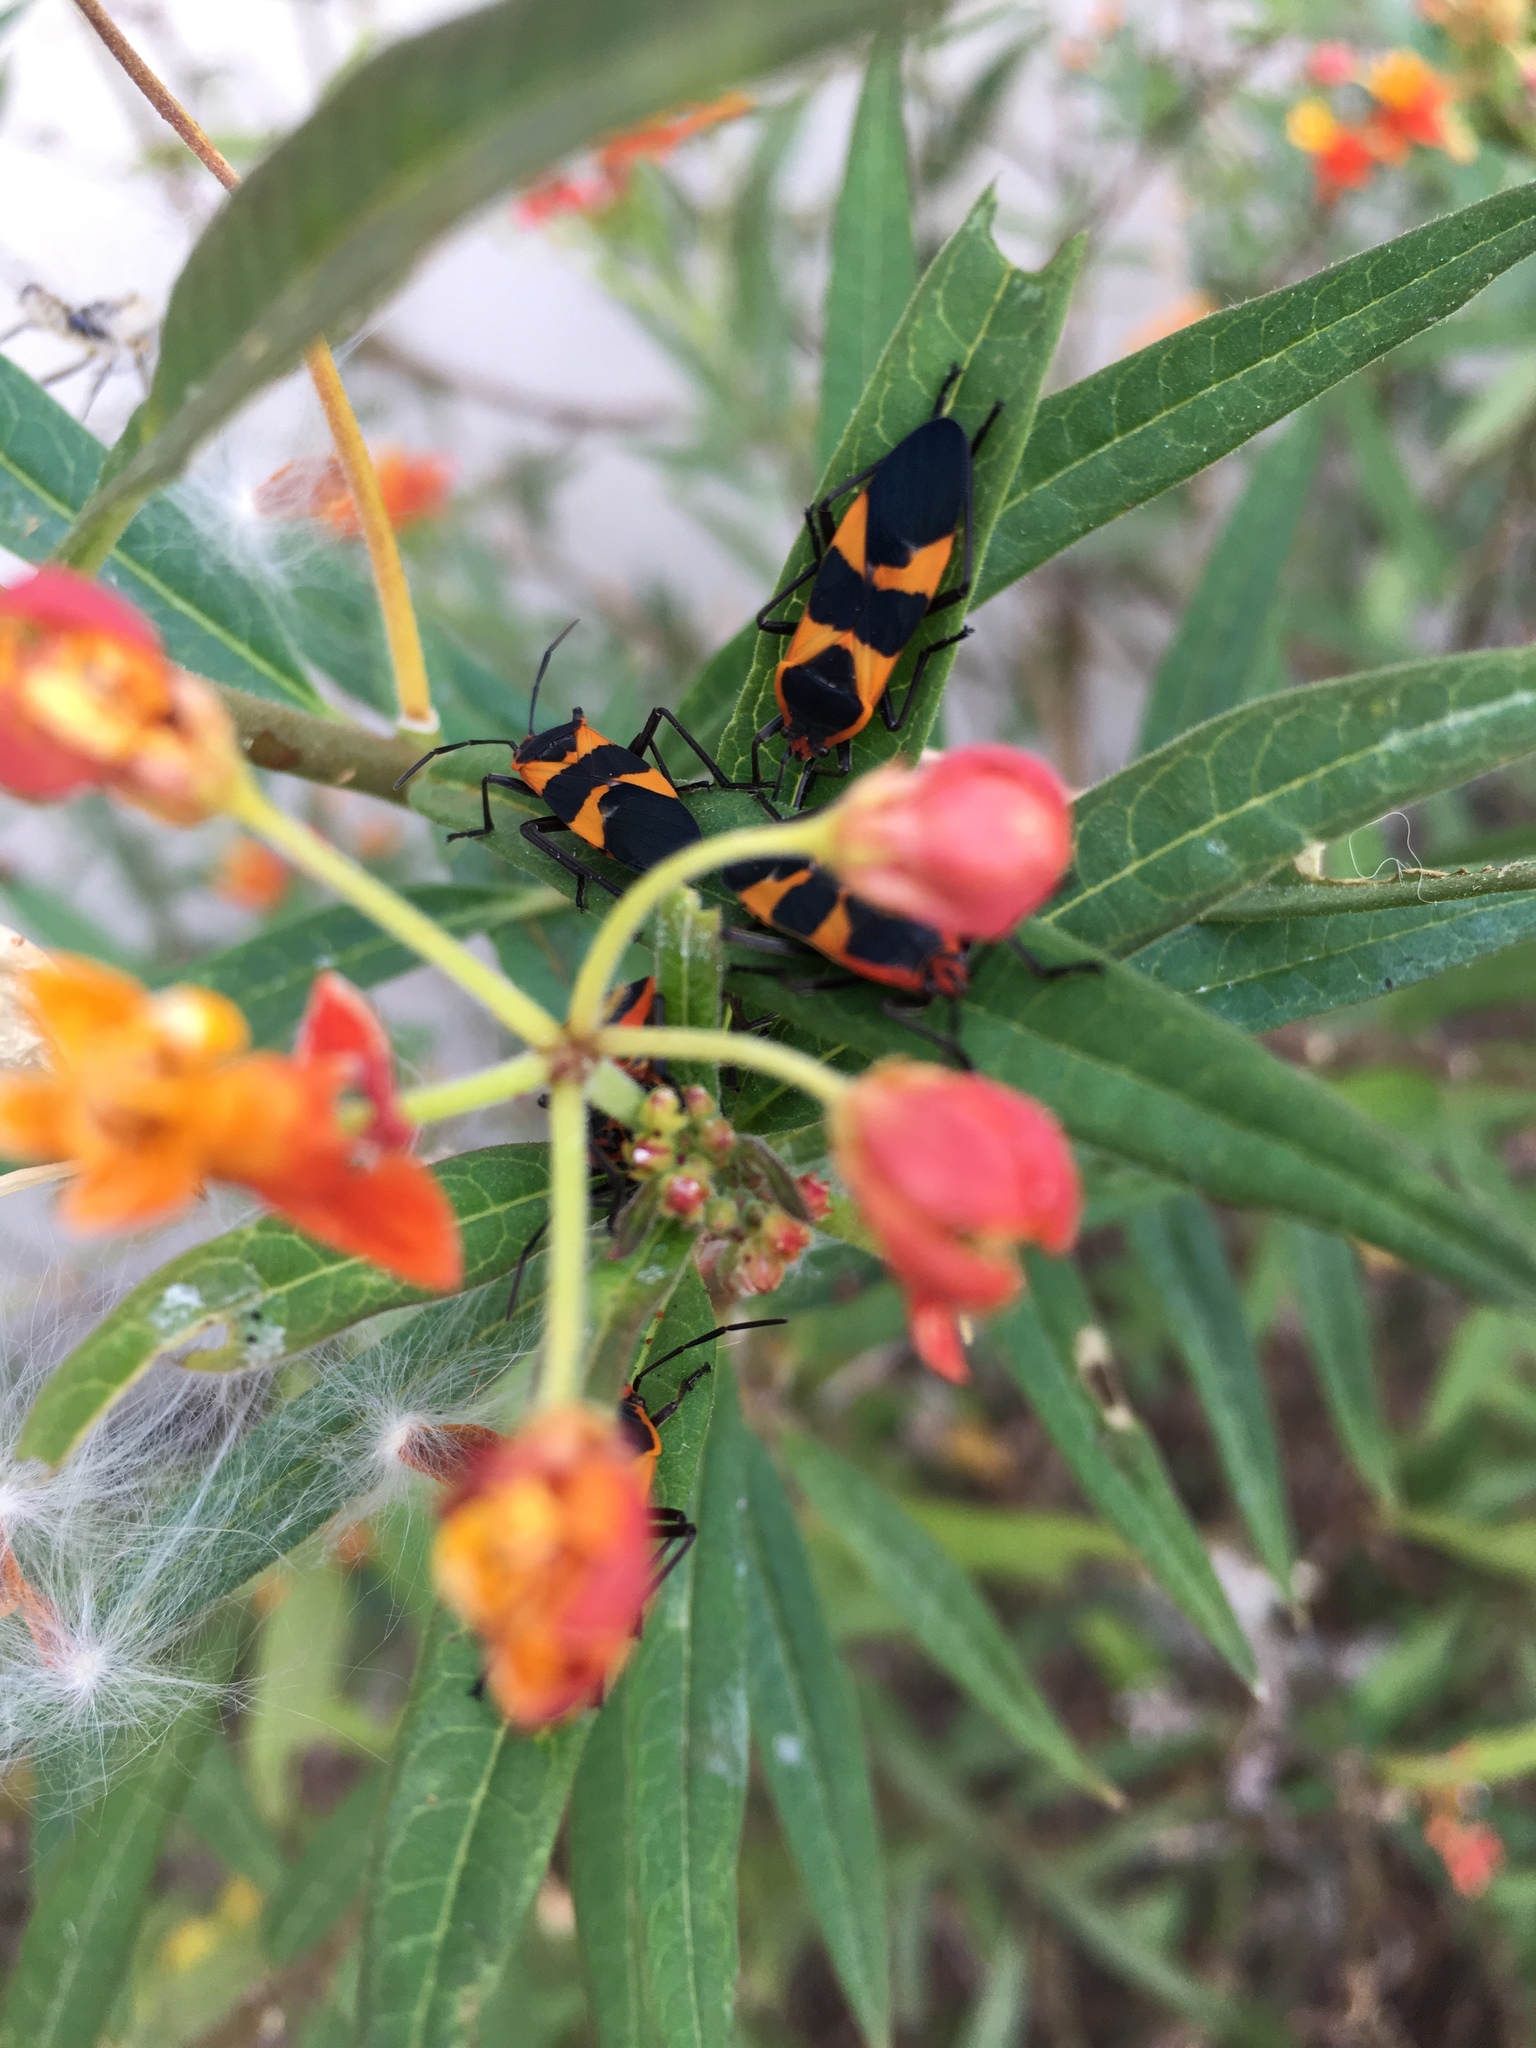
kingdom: Animalia
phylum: Arthropoda
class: Insecta
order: Hemiptera
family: Lygaeidae
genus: Oncopeltus
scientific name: Oncopeltus fasciatus
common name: Large milkweed bug
